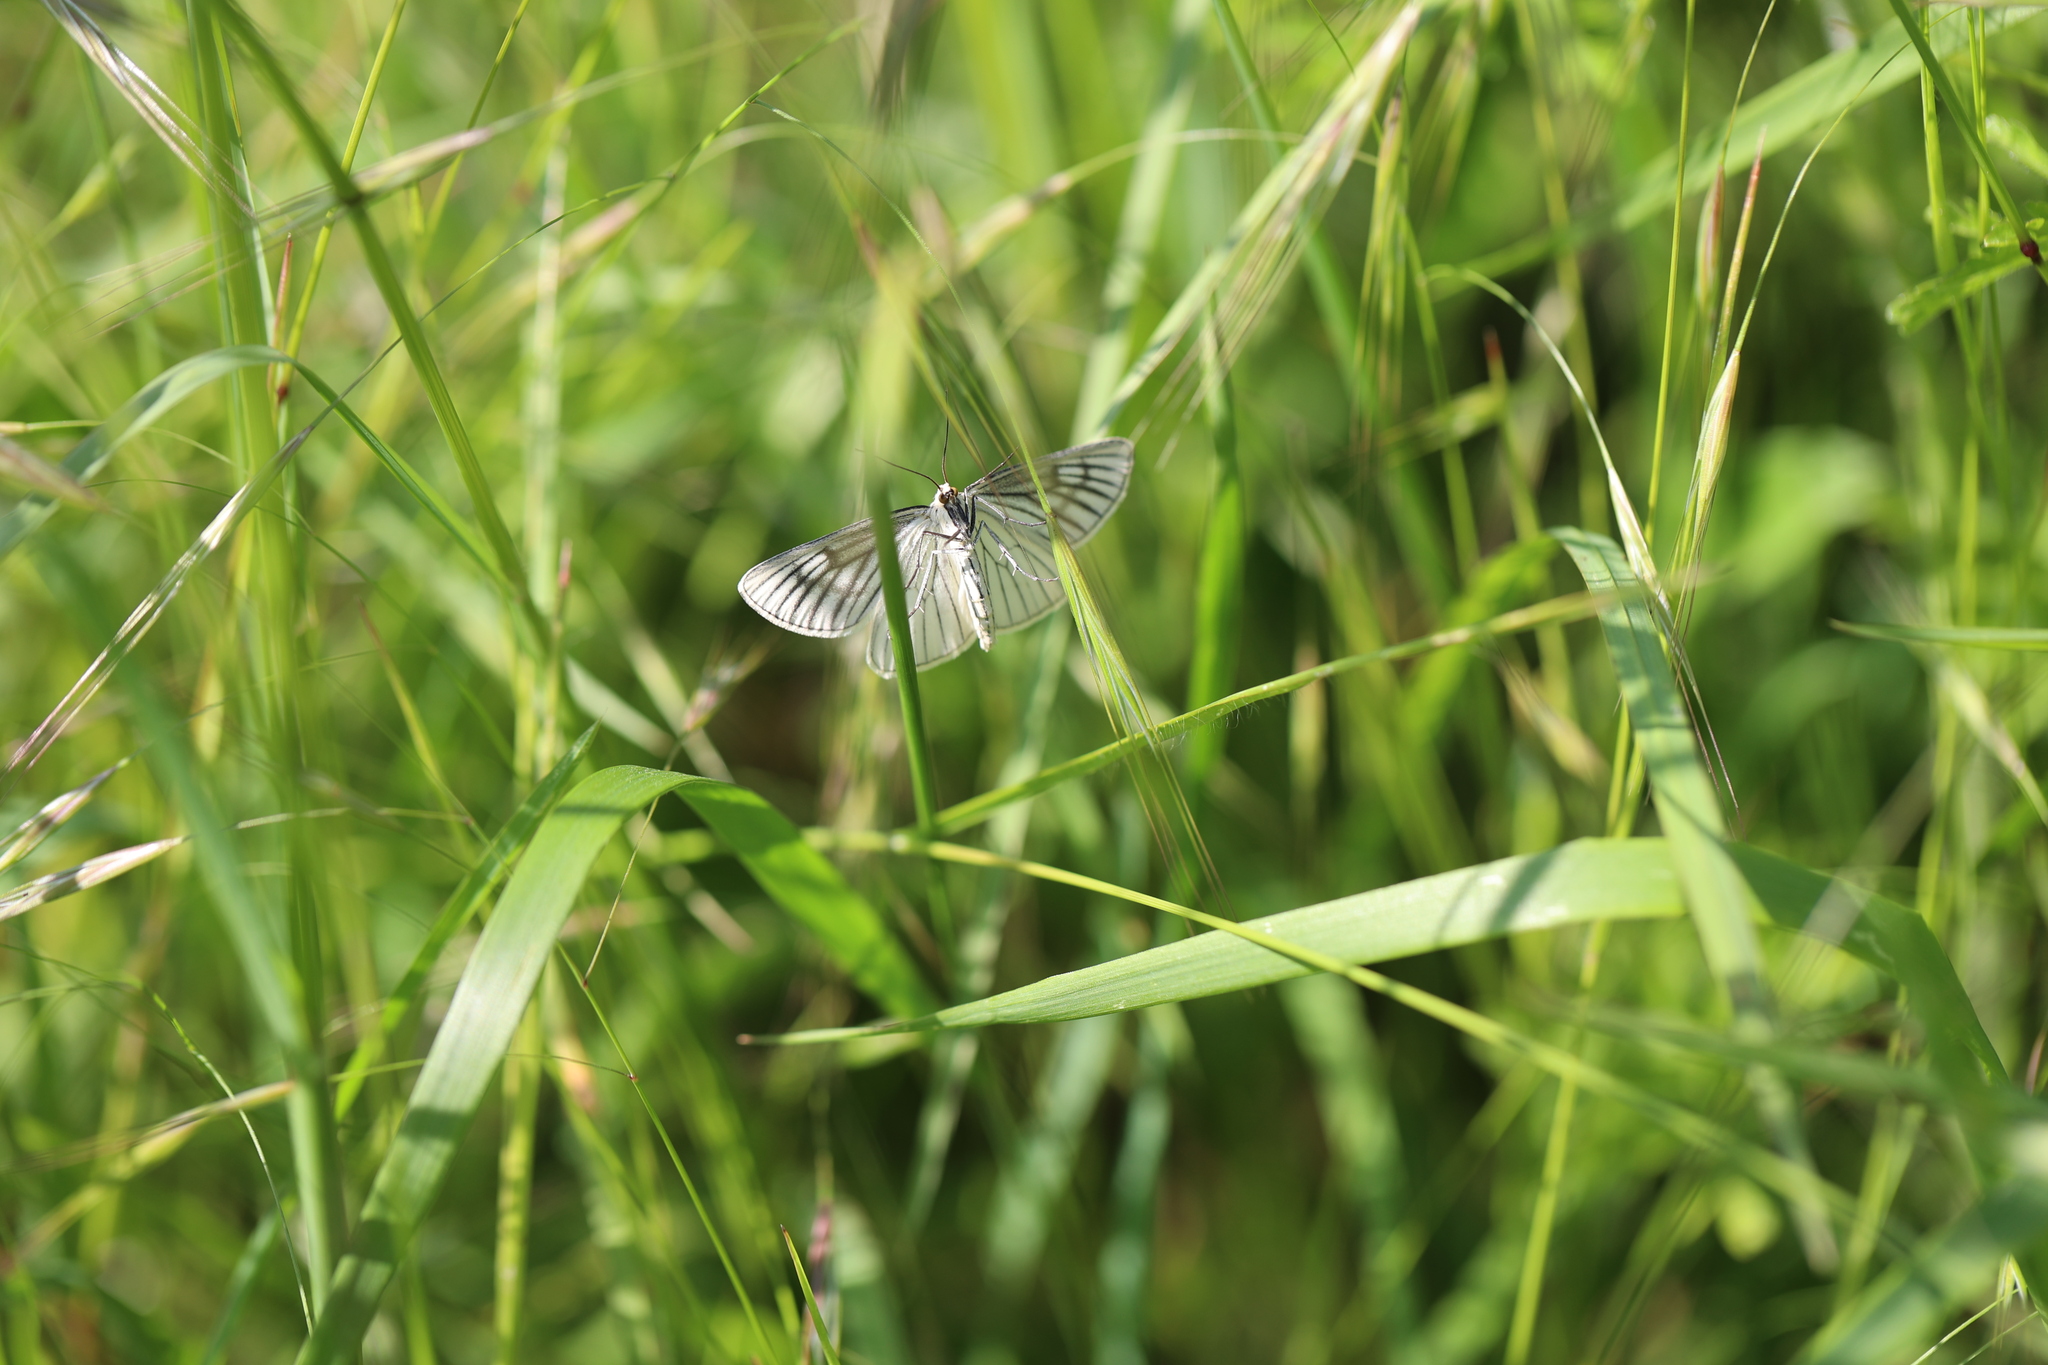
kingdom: Animalia
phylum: Arthropoda
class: Insecta
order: Lepidoptera
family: Geometridae
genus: Siona
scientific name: Siona lineata
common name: Black-veined moth
